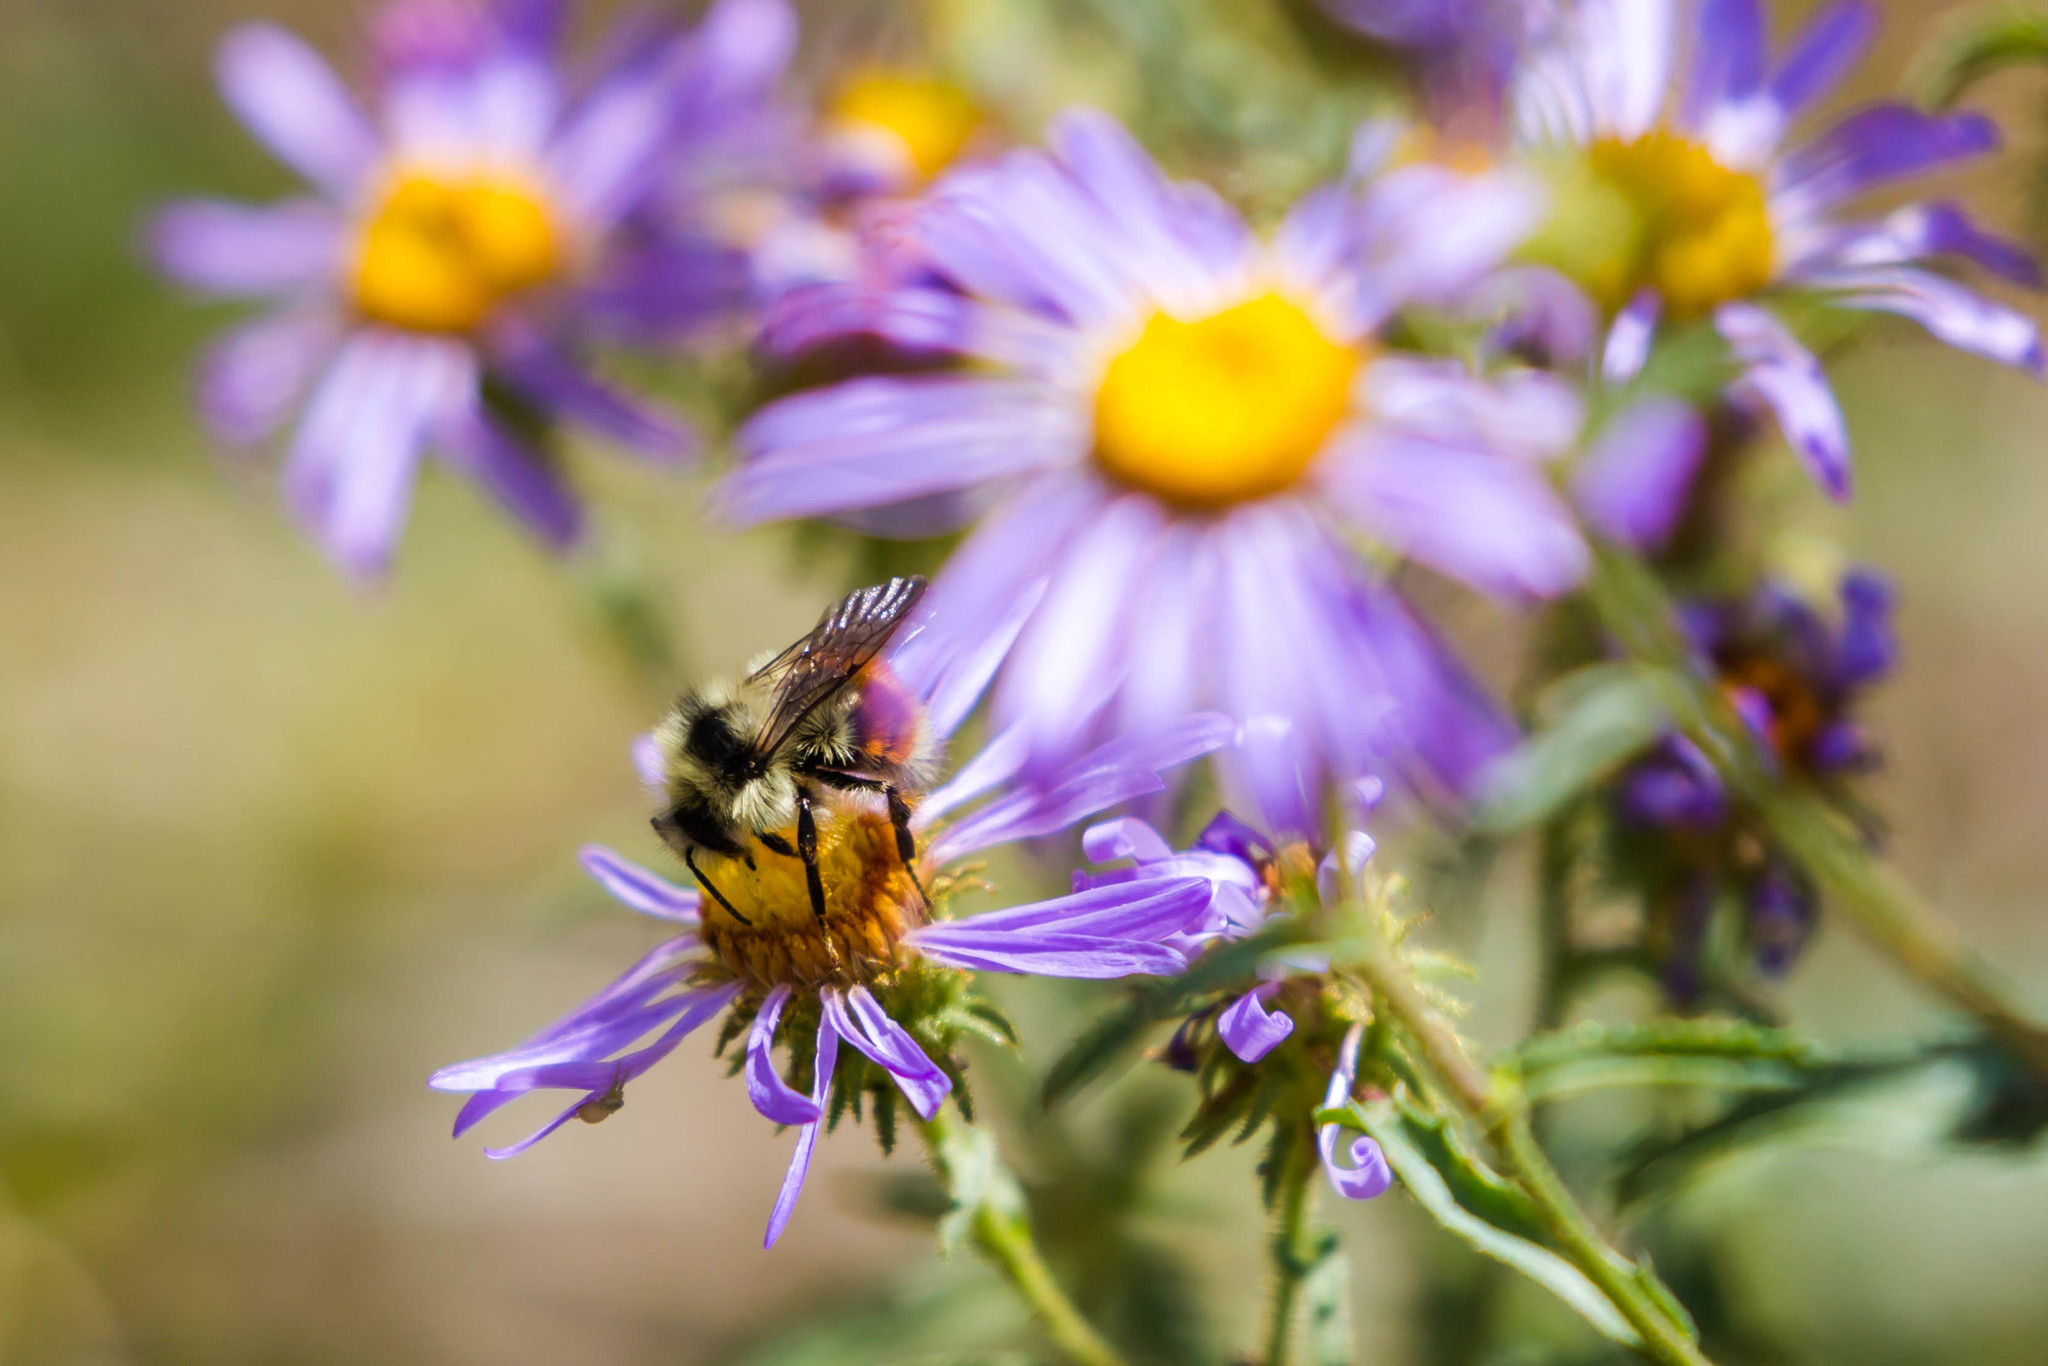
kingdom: Animalia
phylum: Arthropoda
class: Insecta
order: Hymenoptera
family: Apidae
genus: Bombus
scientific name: Bombus bifarius
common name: Two form bumble bee
